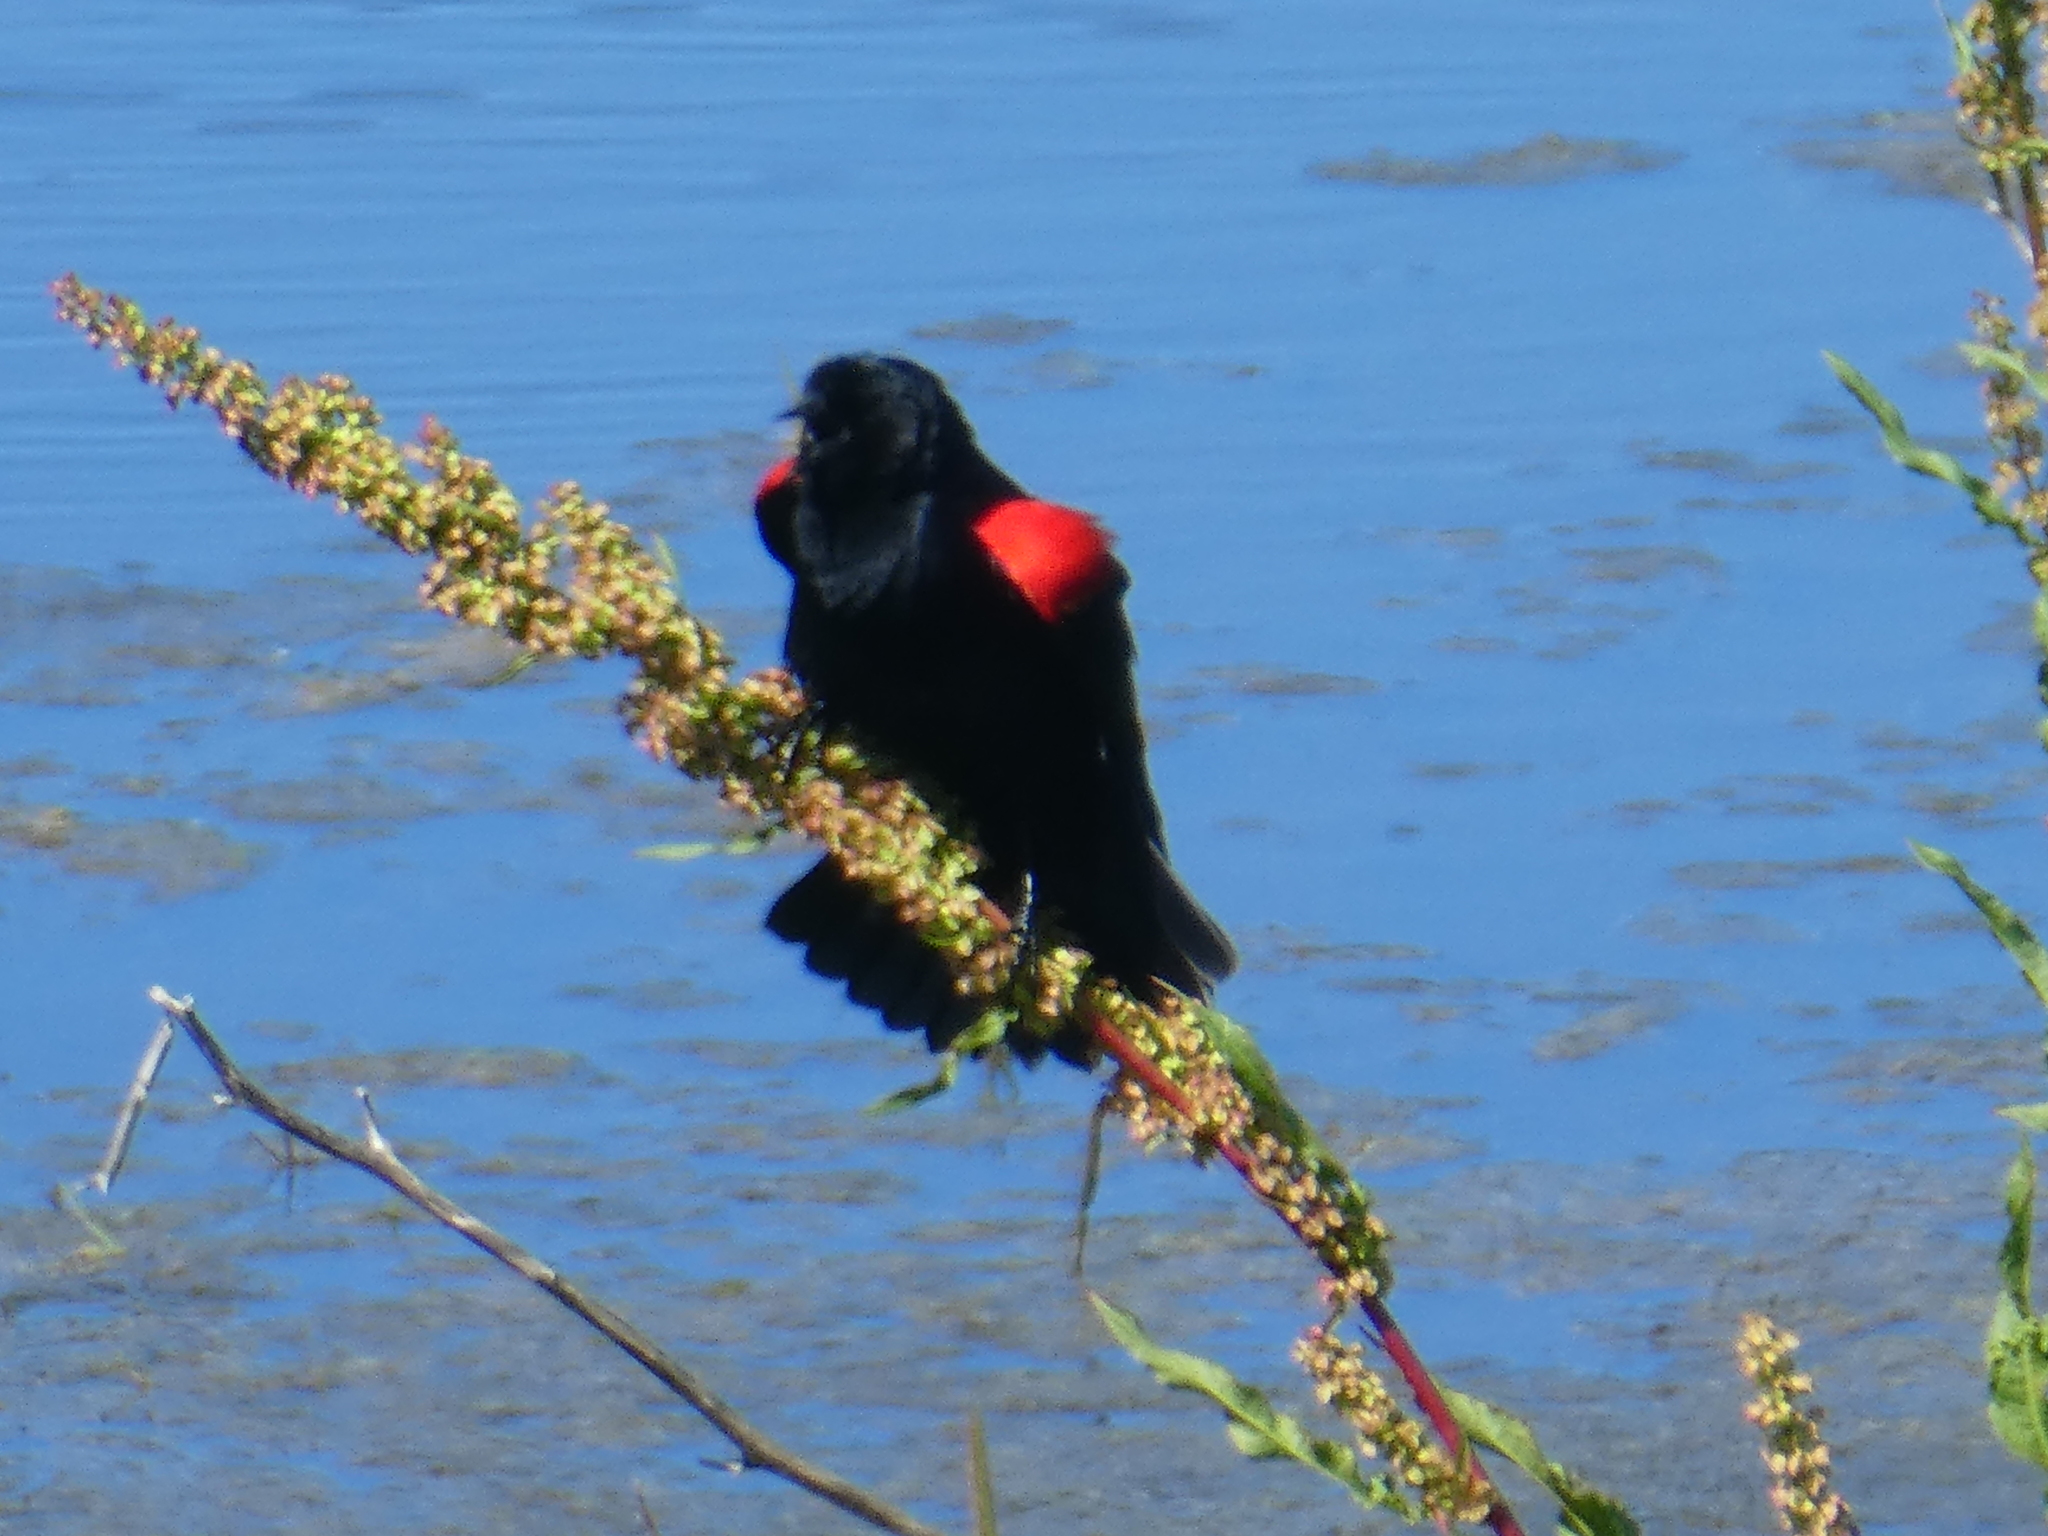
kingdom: Animalia
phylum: Chordata
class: Aves
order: Passeriformes
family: Icteridae
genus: Agelaius
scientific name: Agelaius phoeniceus
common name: Red-winged blackbird
